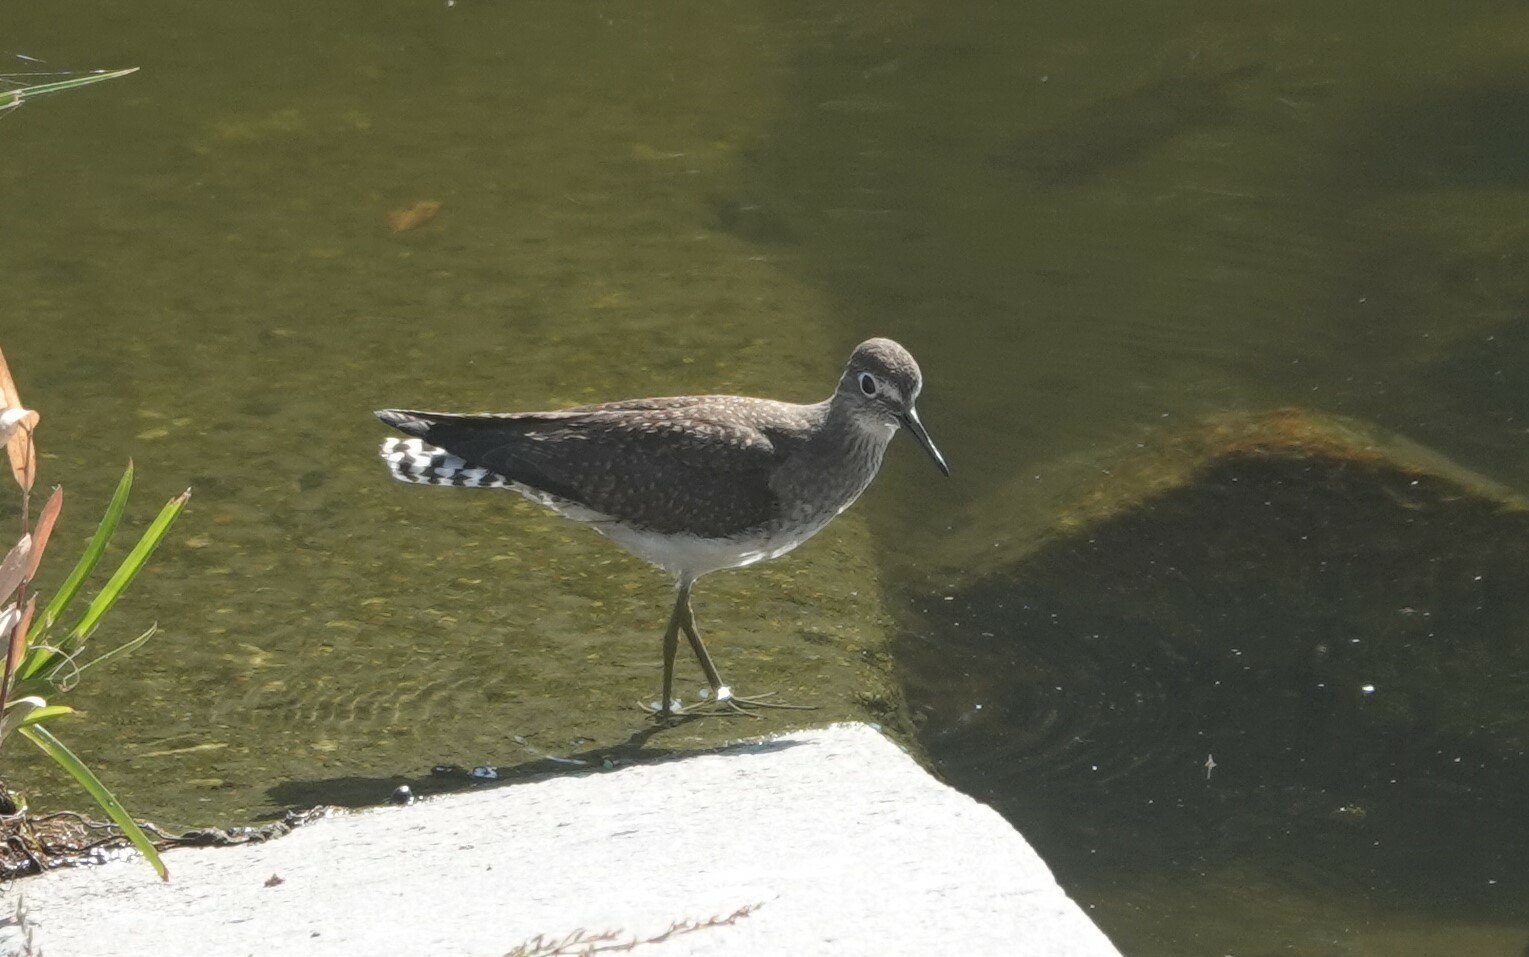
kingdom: Animalia
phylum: Chordata
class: Aves
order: Charadriiformes
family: Scolopacidae
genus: Tringa
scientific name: Tringa solitaria
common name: Solitary sandpiper
